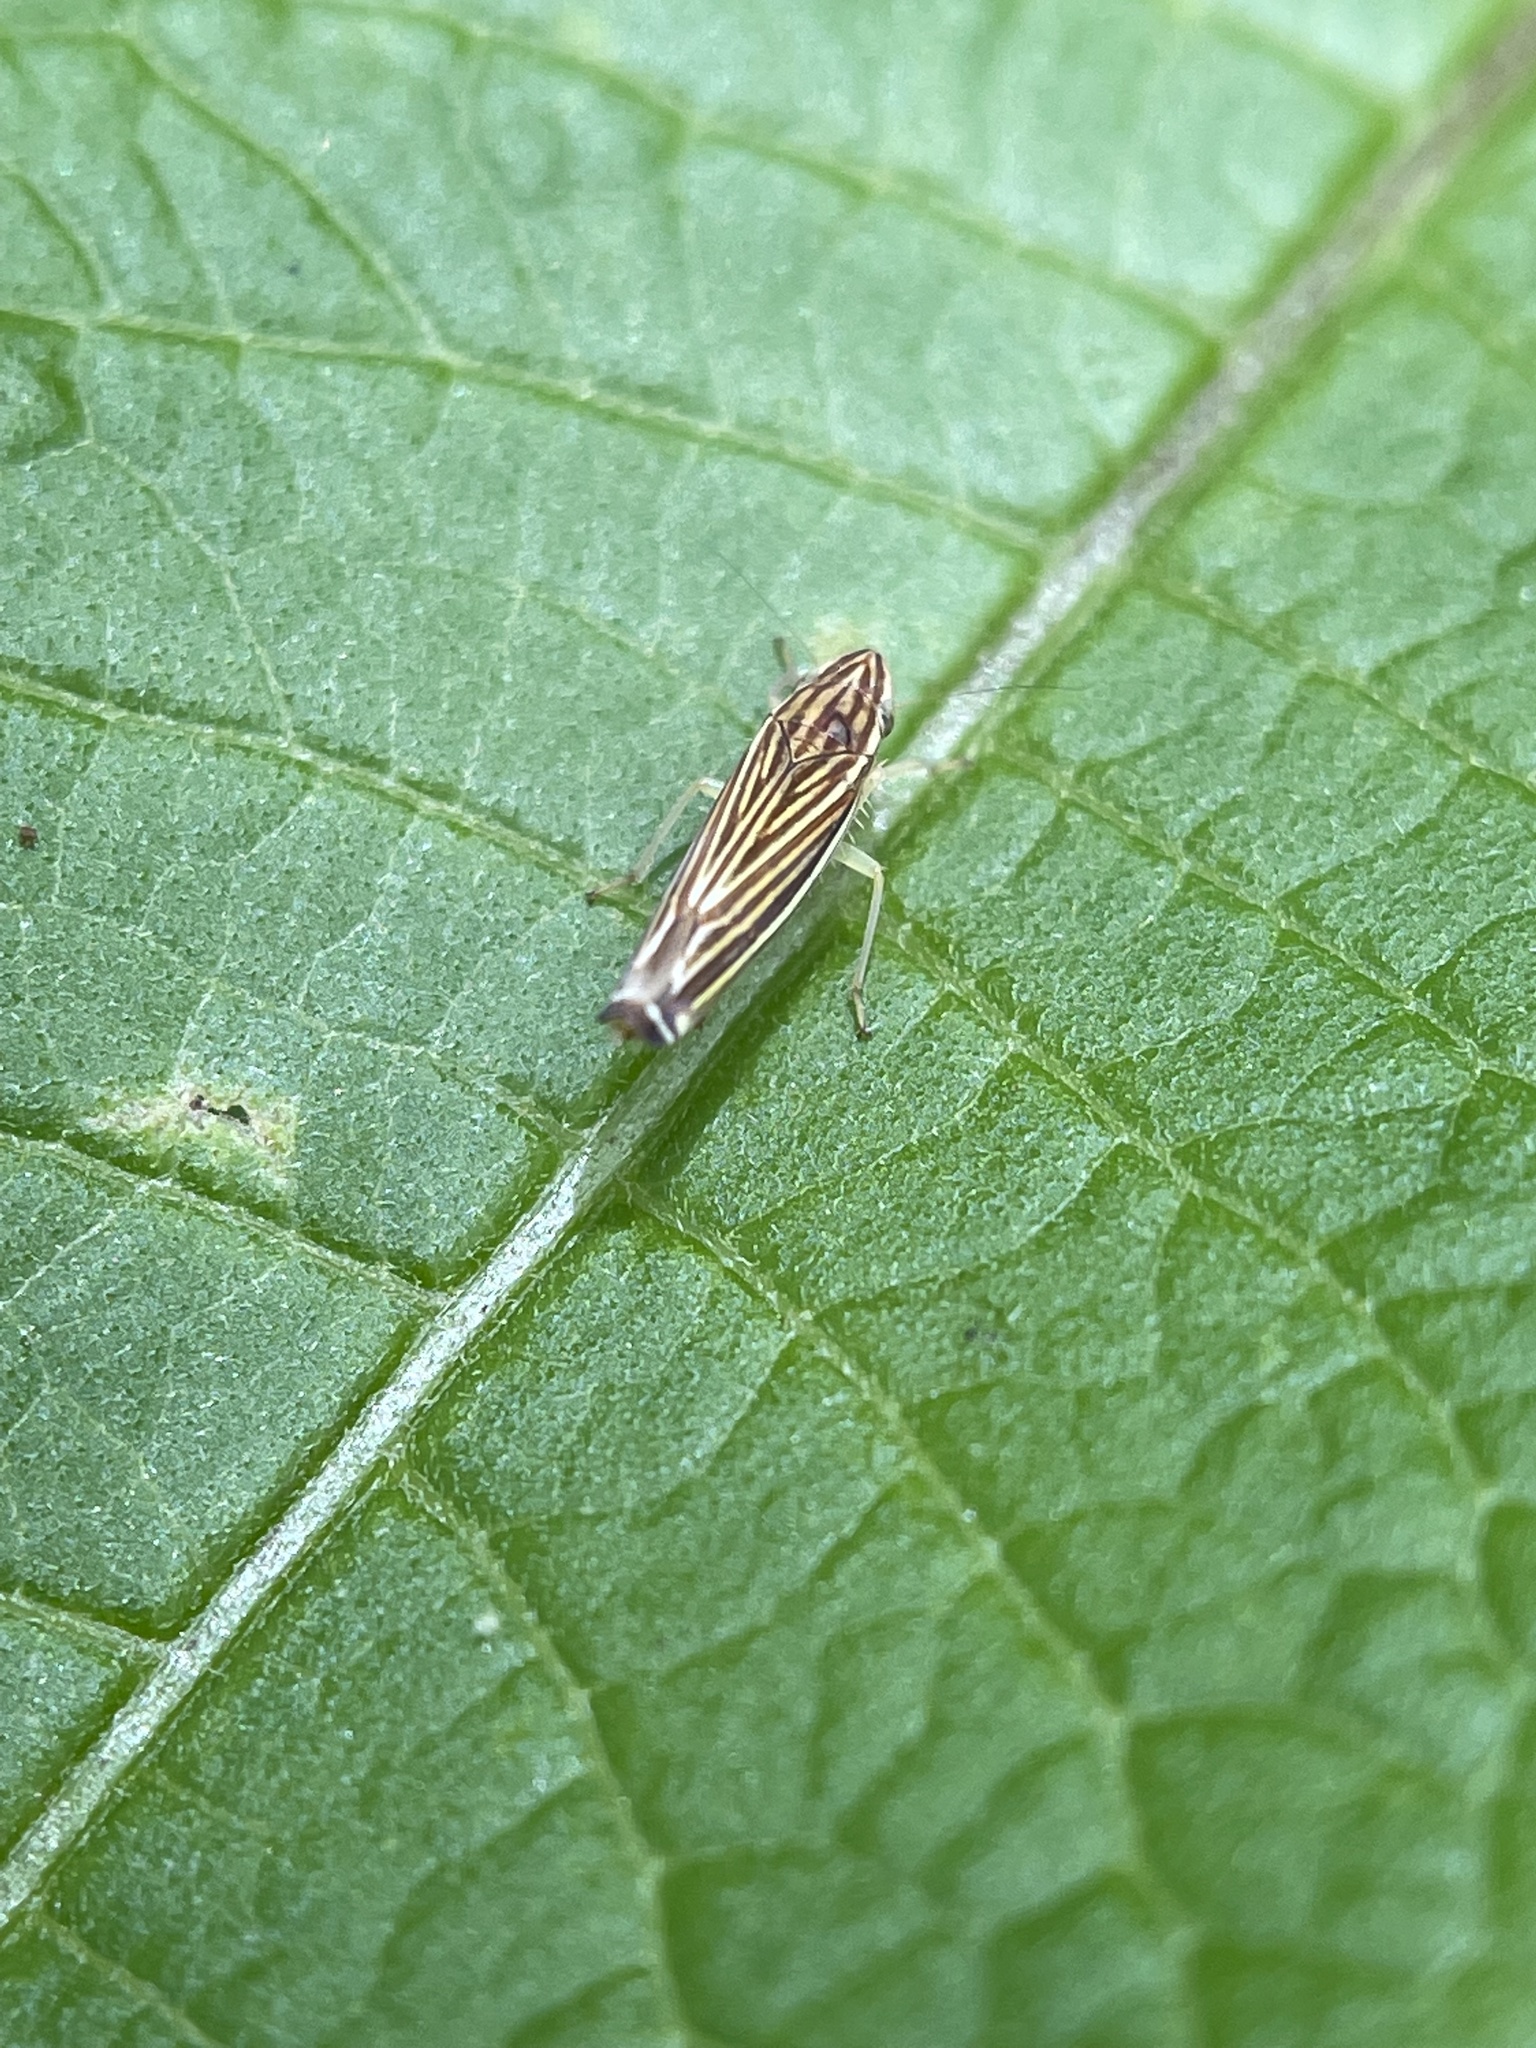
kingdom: Animalia
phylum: Arthropoda
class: Insecta
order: Hemiptera
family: Cicadellidae
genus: Sibovia
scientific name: Sibovia occatoria
